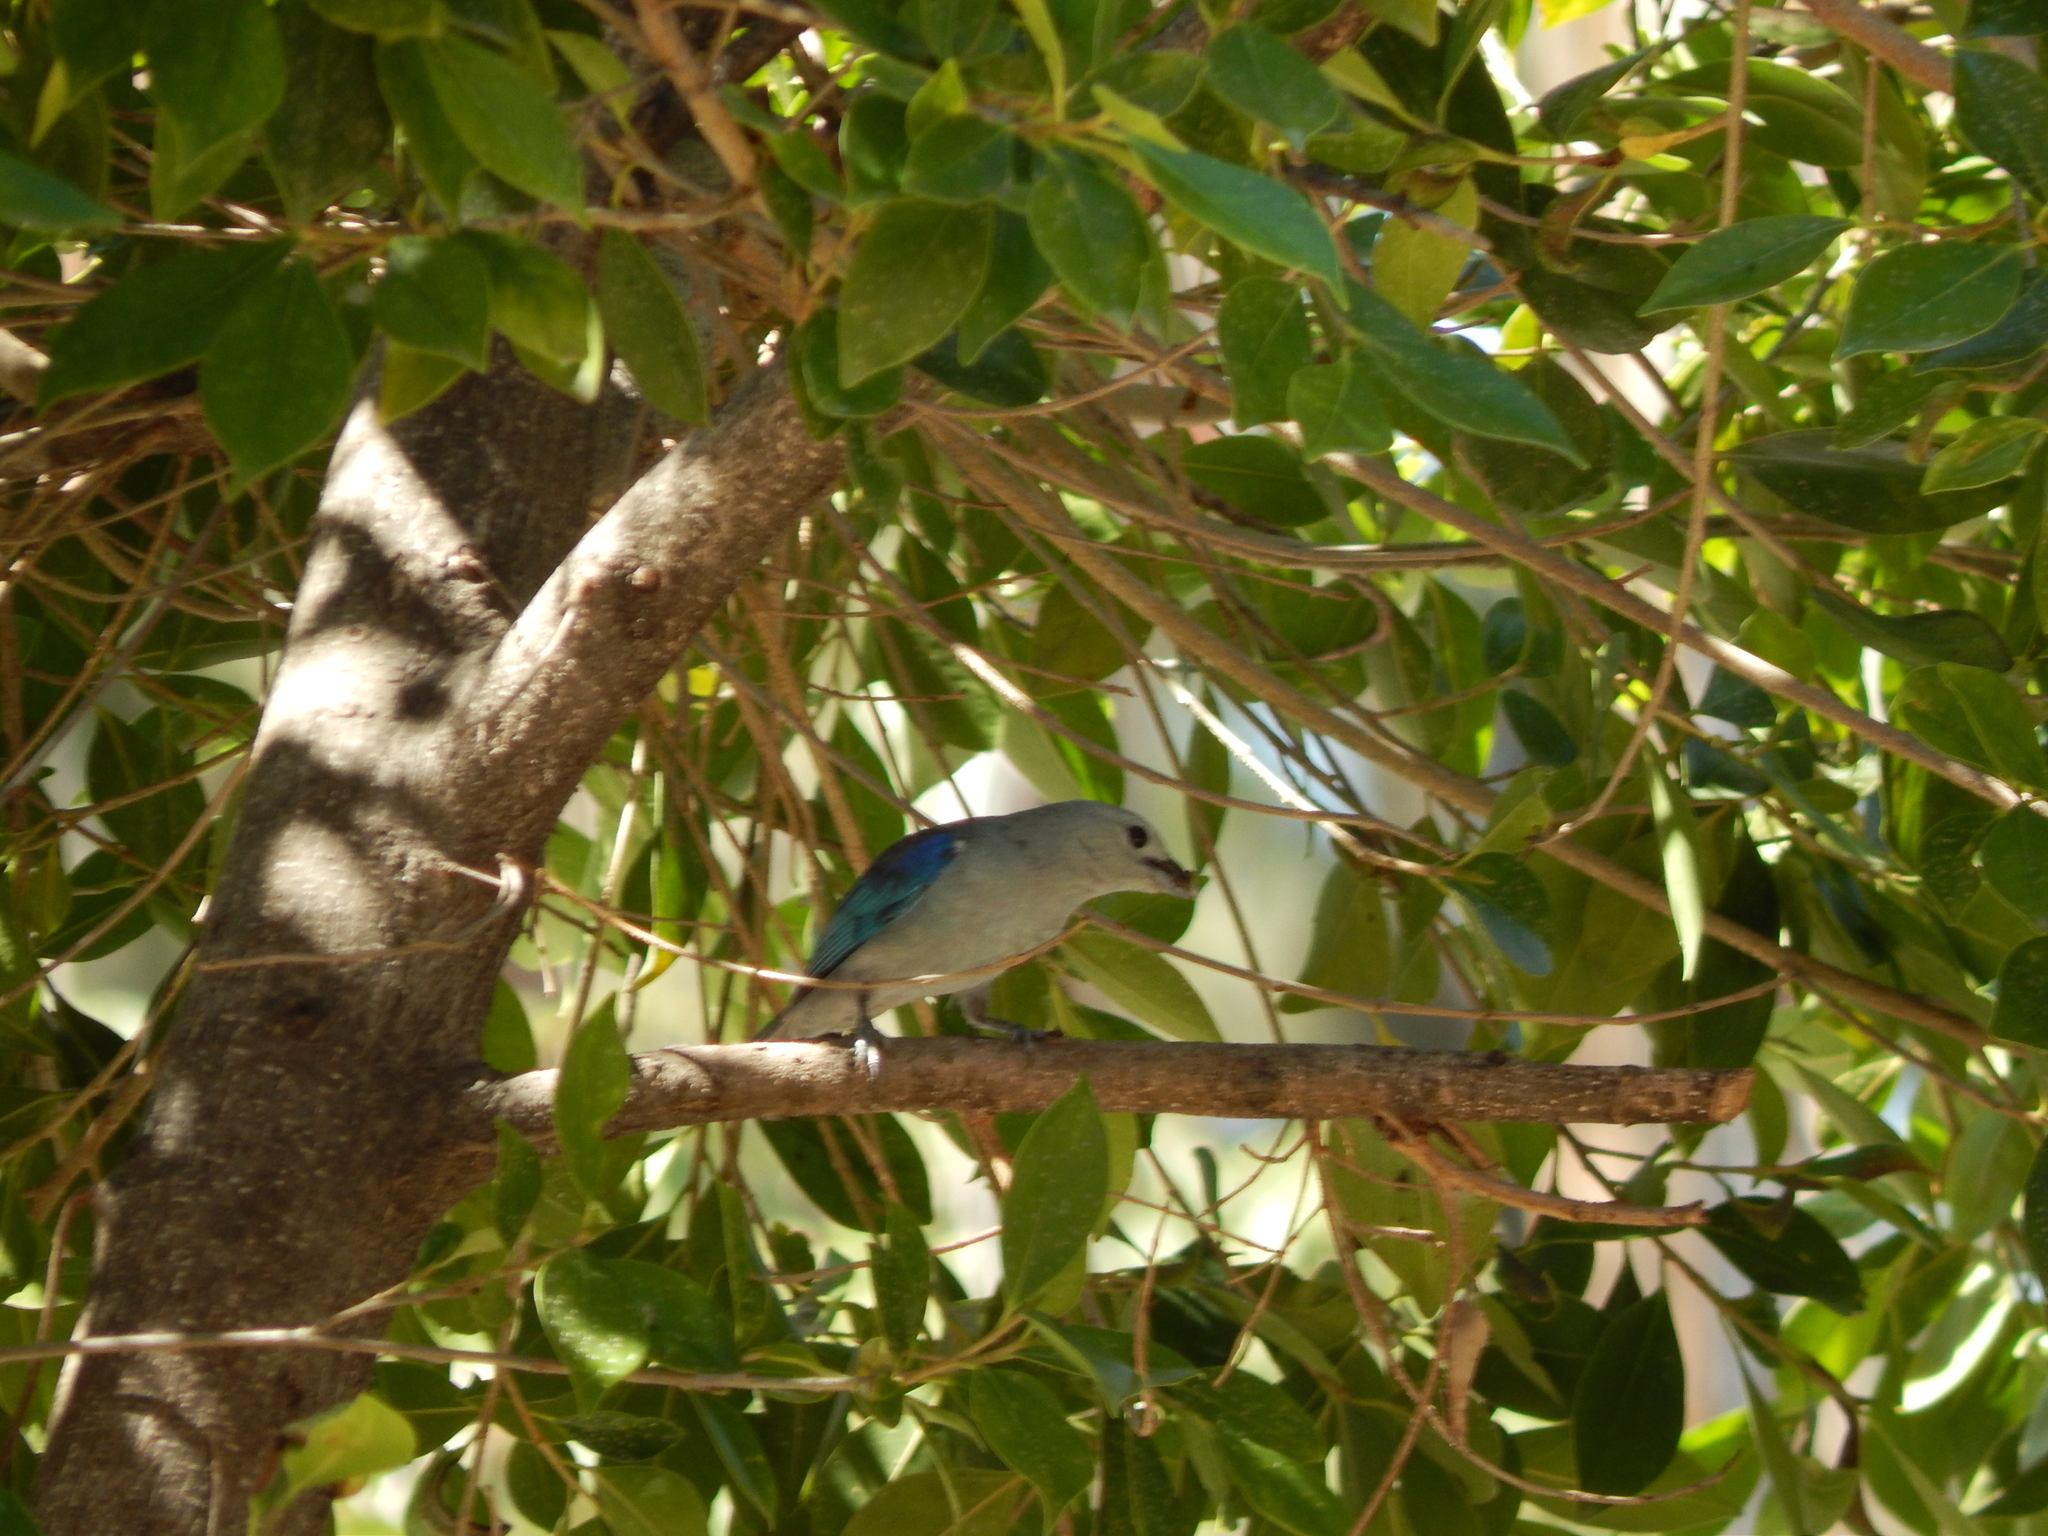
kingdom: Animalia
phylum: Chordata
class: Aves
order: Passeriformes
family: Thraupidae
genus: Thraupis
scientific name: Thraupis episcopus
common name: Blue-grey tanager
